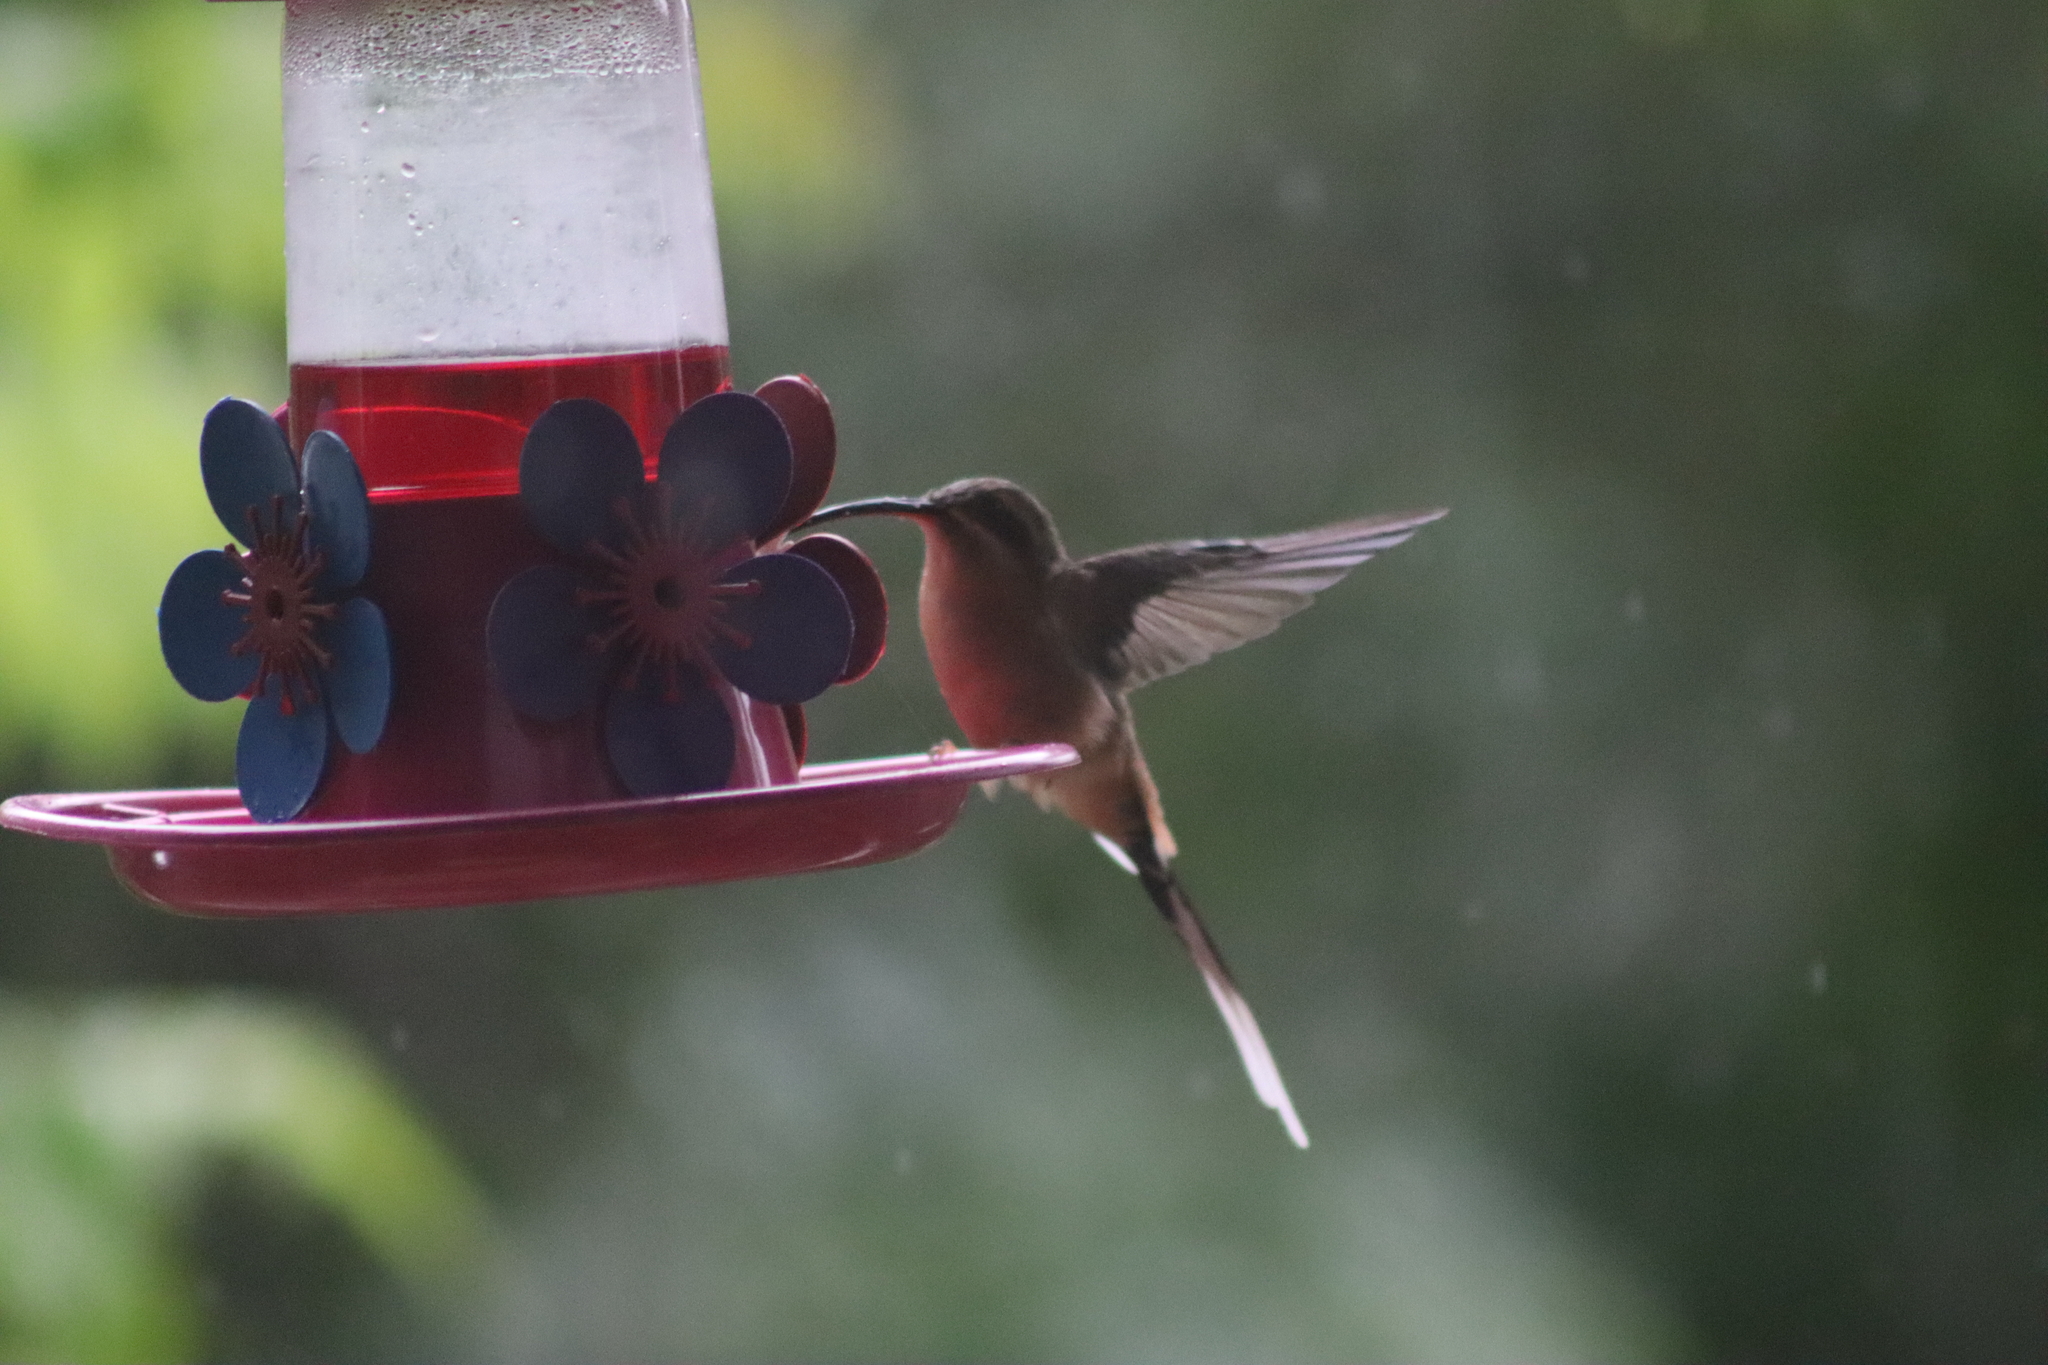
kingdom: Animalia
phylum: Chordata
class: Aves
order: Apodiformes
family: Trochilidae
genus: Phaethornis
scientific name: Phaethornis pretrei
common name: Planalto hermit
